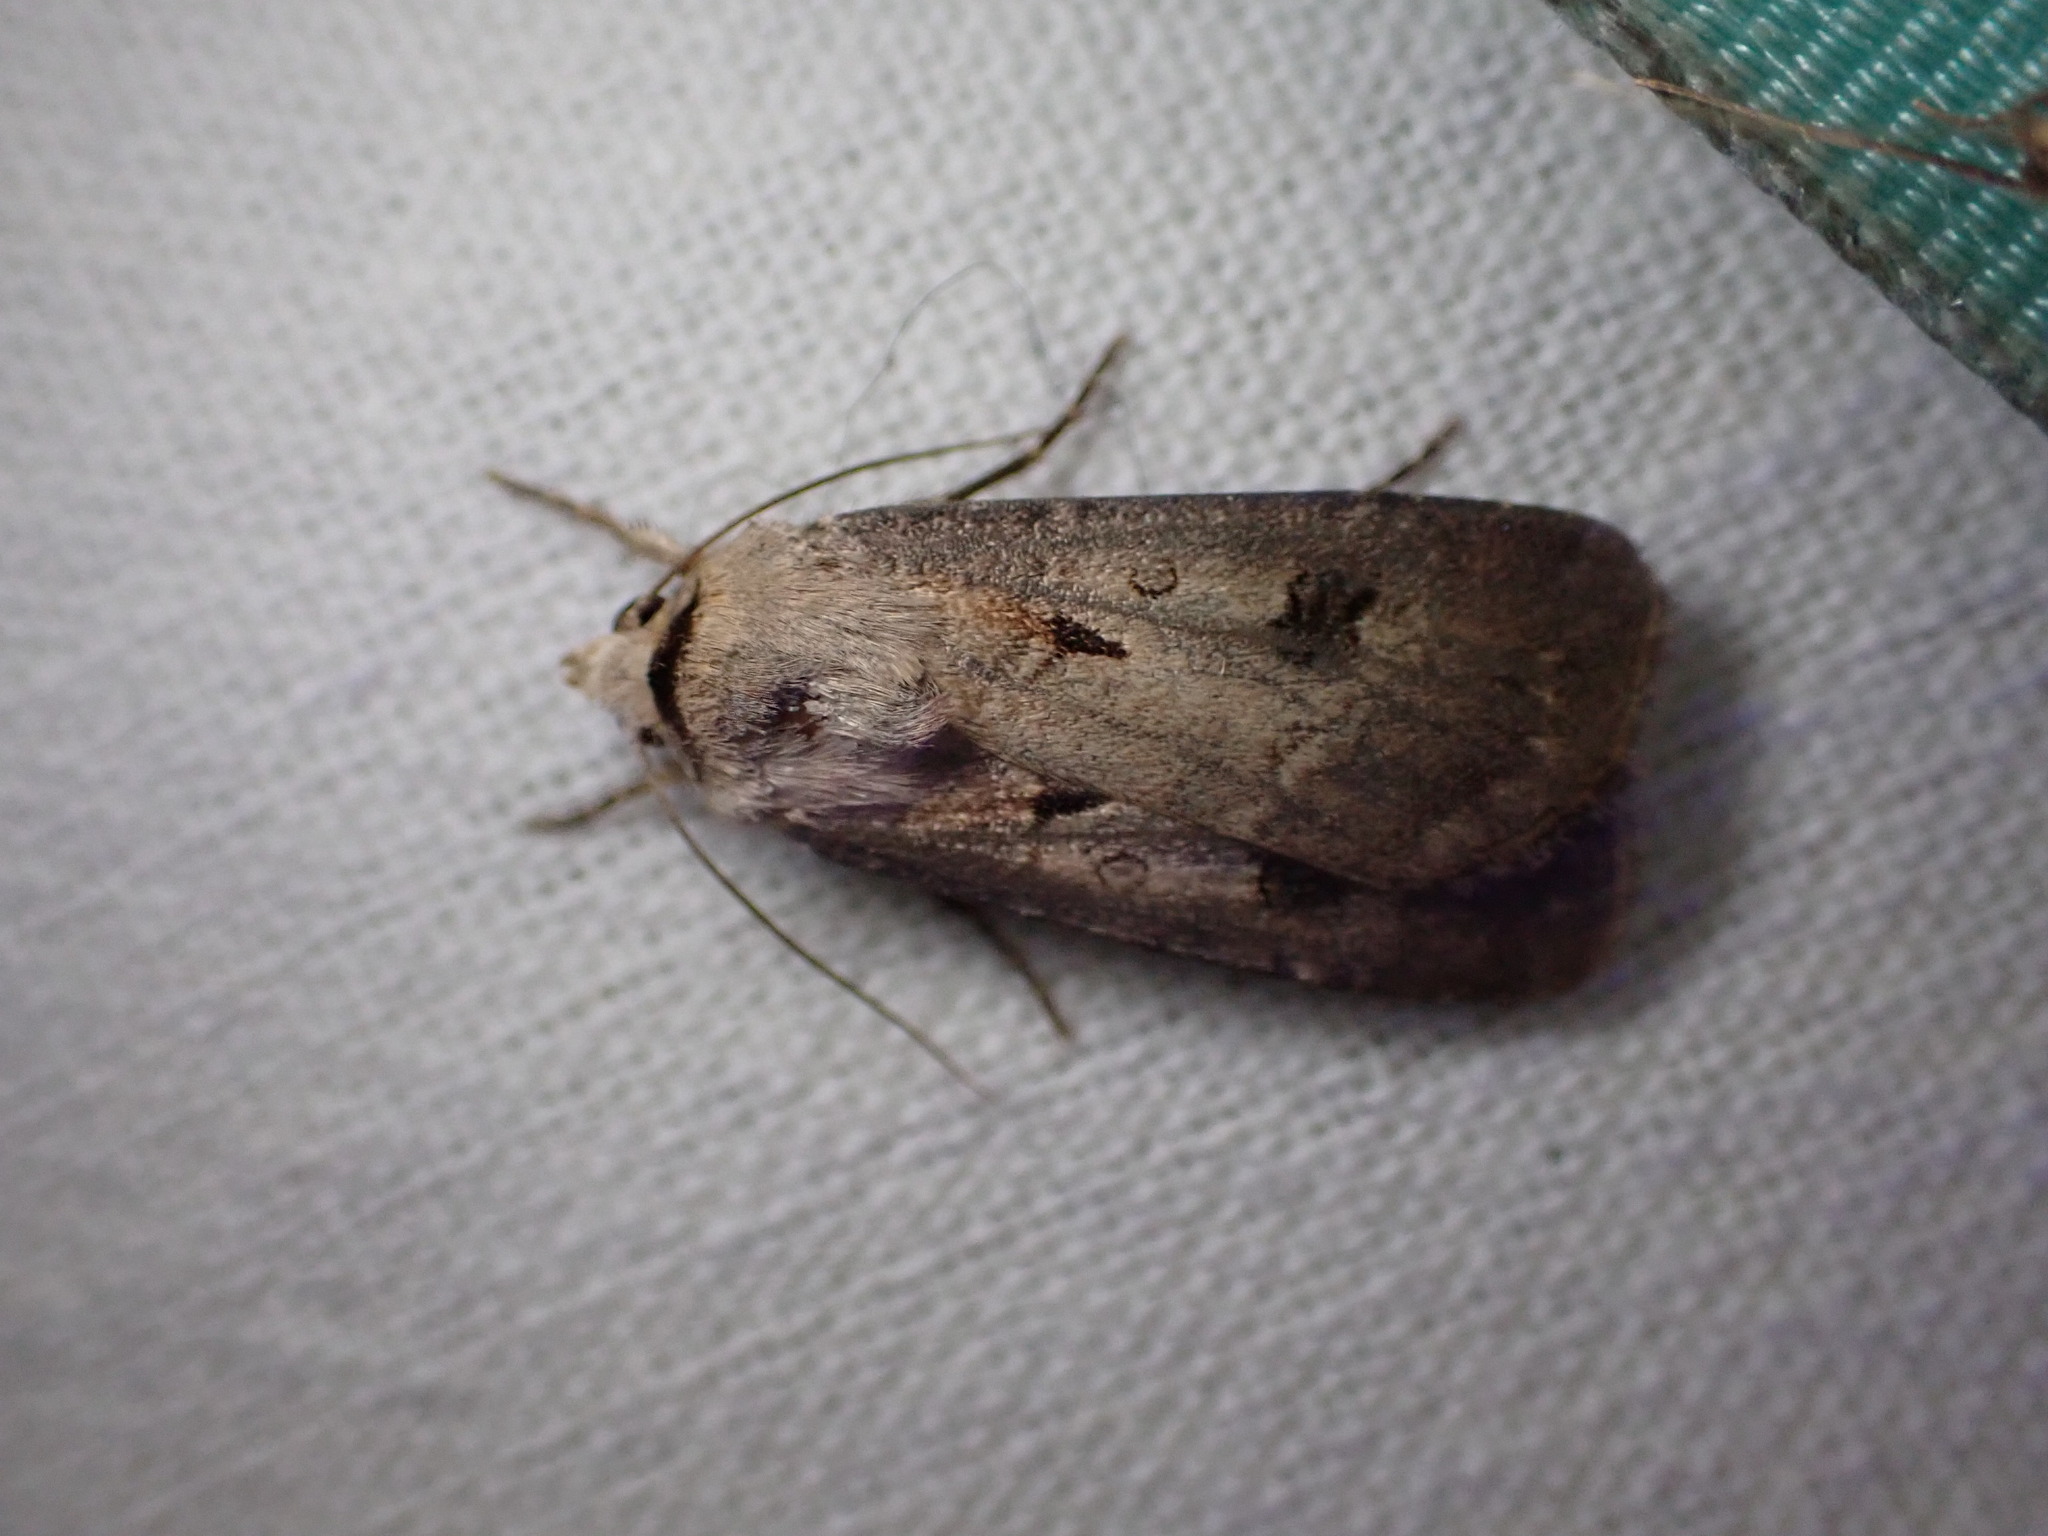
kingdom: Animalia
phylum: Arthropoda
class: Insecta
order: Lepidoptera
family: Noctuidae
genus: Agrotis
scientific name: Agrotis exclamationis
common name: Heart and dart
